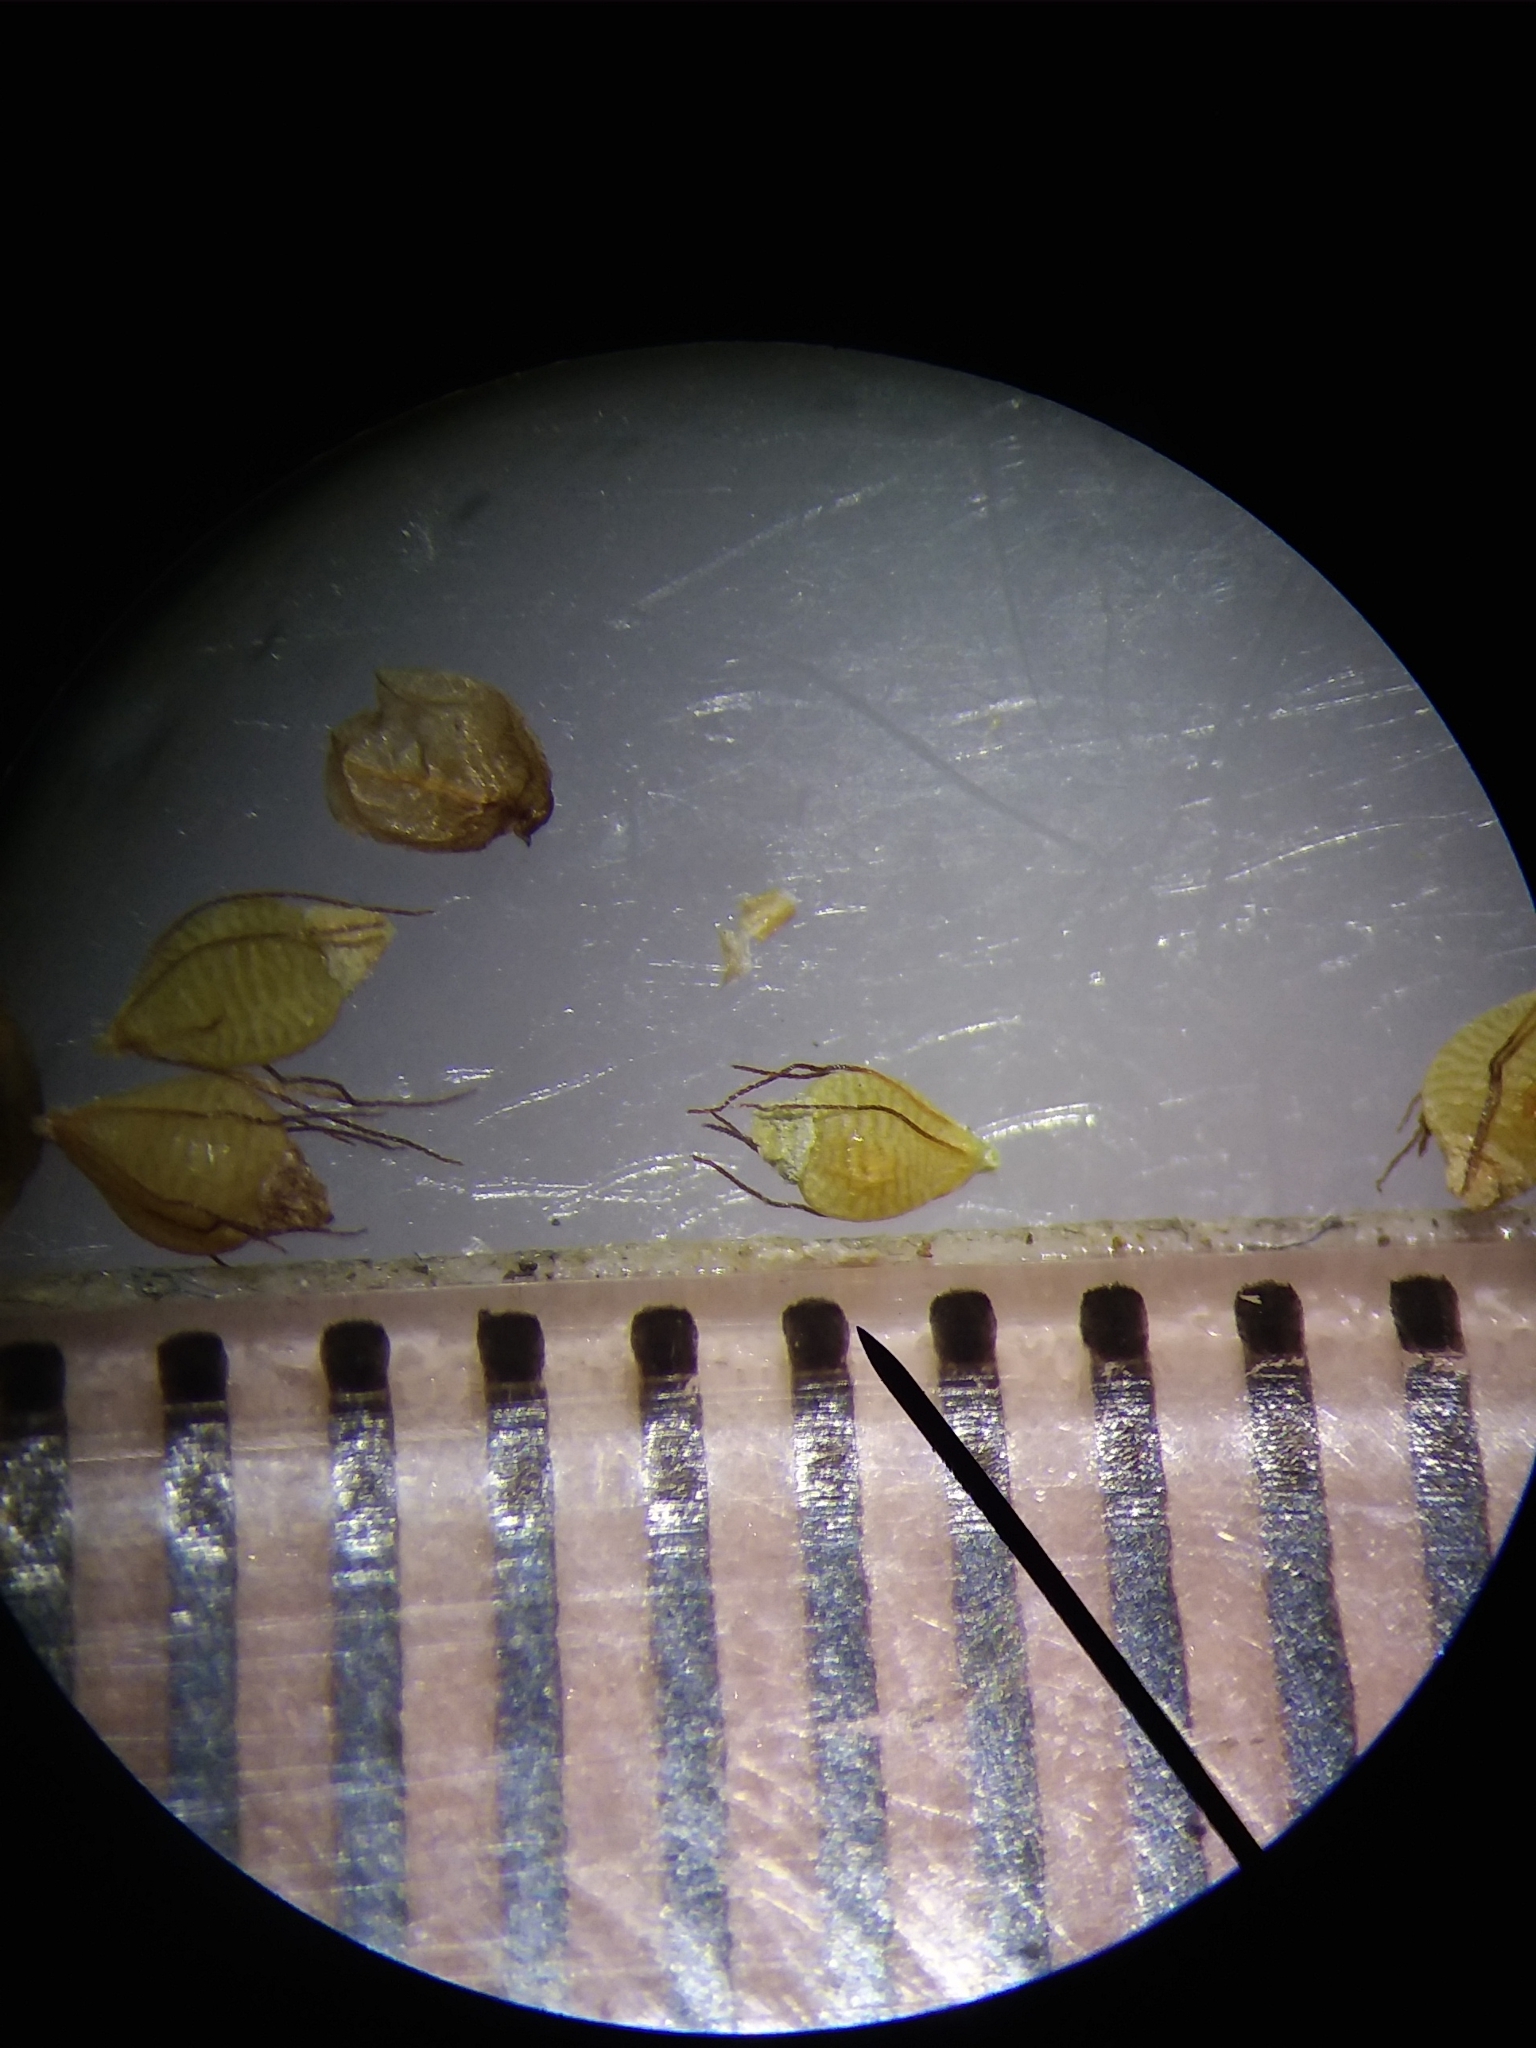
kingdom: Plantae
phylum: Tracheophyta
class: Liliopsida
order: Poales
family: Cyperaceae
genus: Rhynchospora
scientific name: Rhynchospora caduca
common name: Anglestem beaksedge
